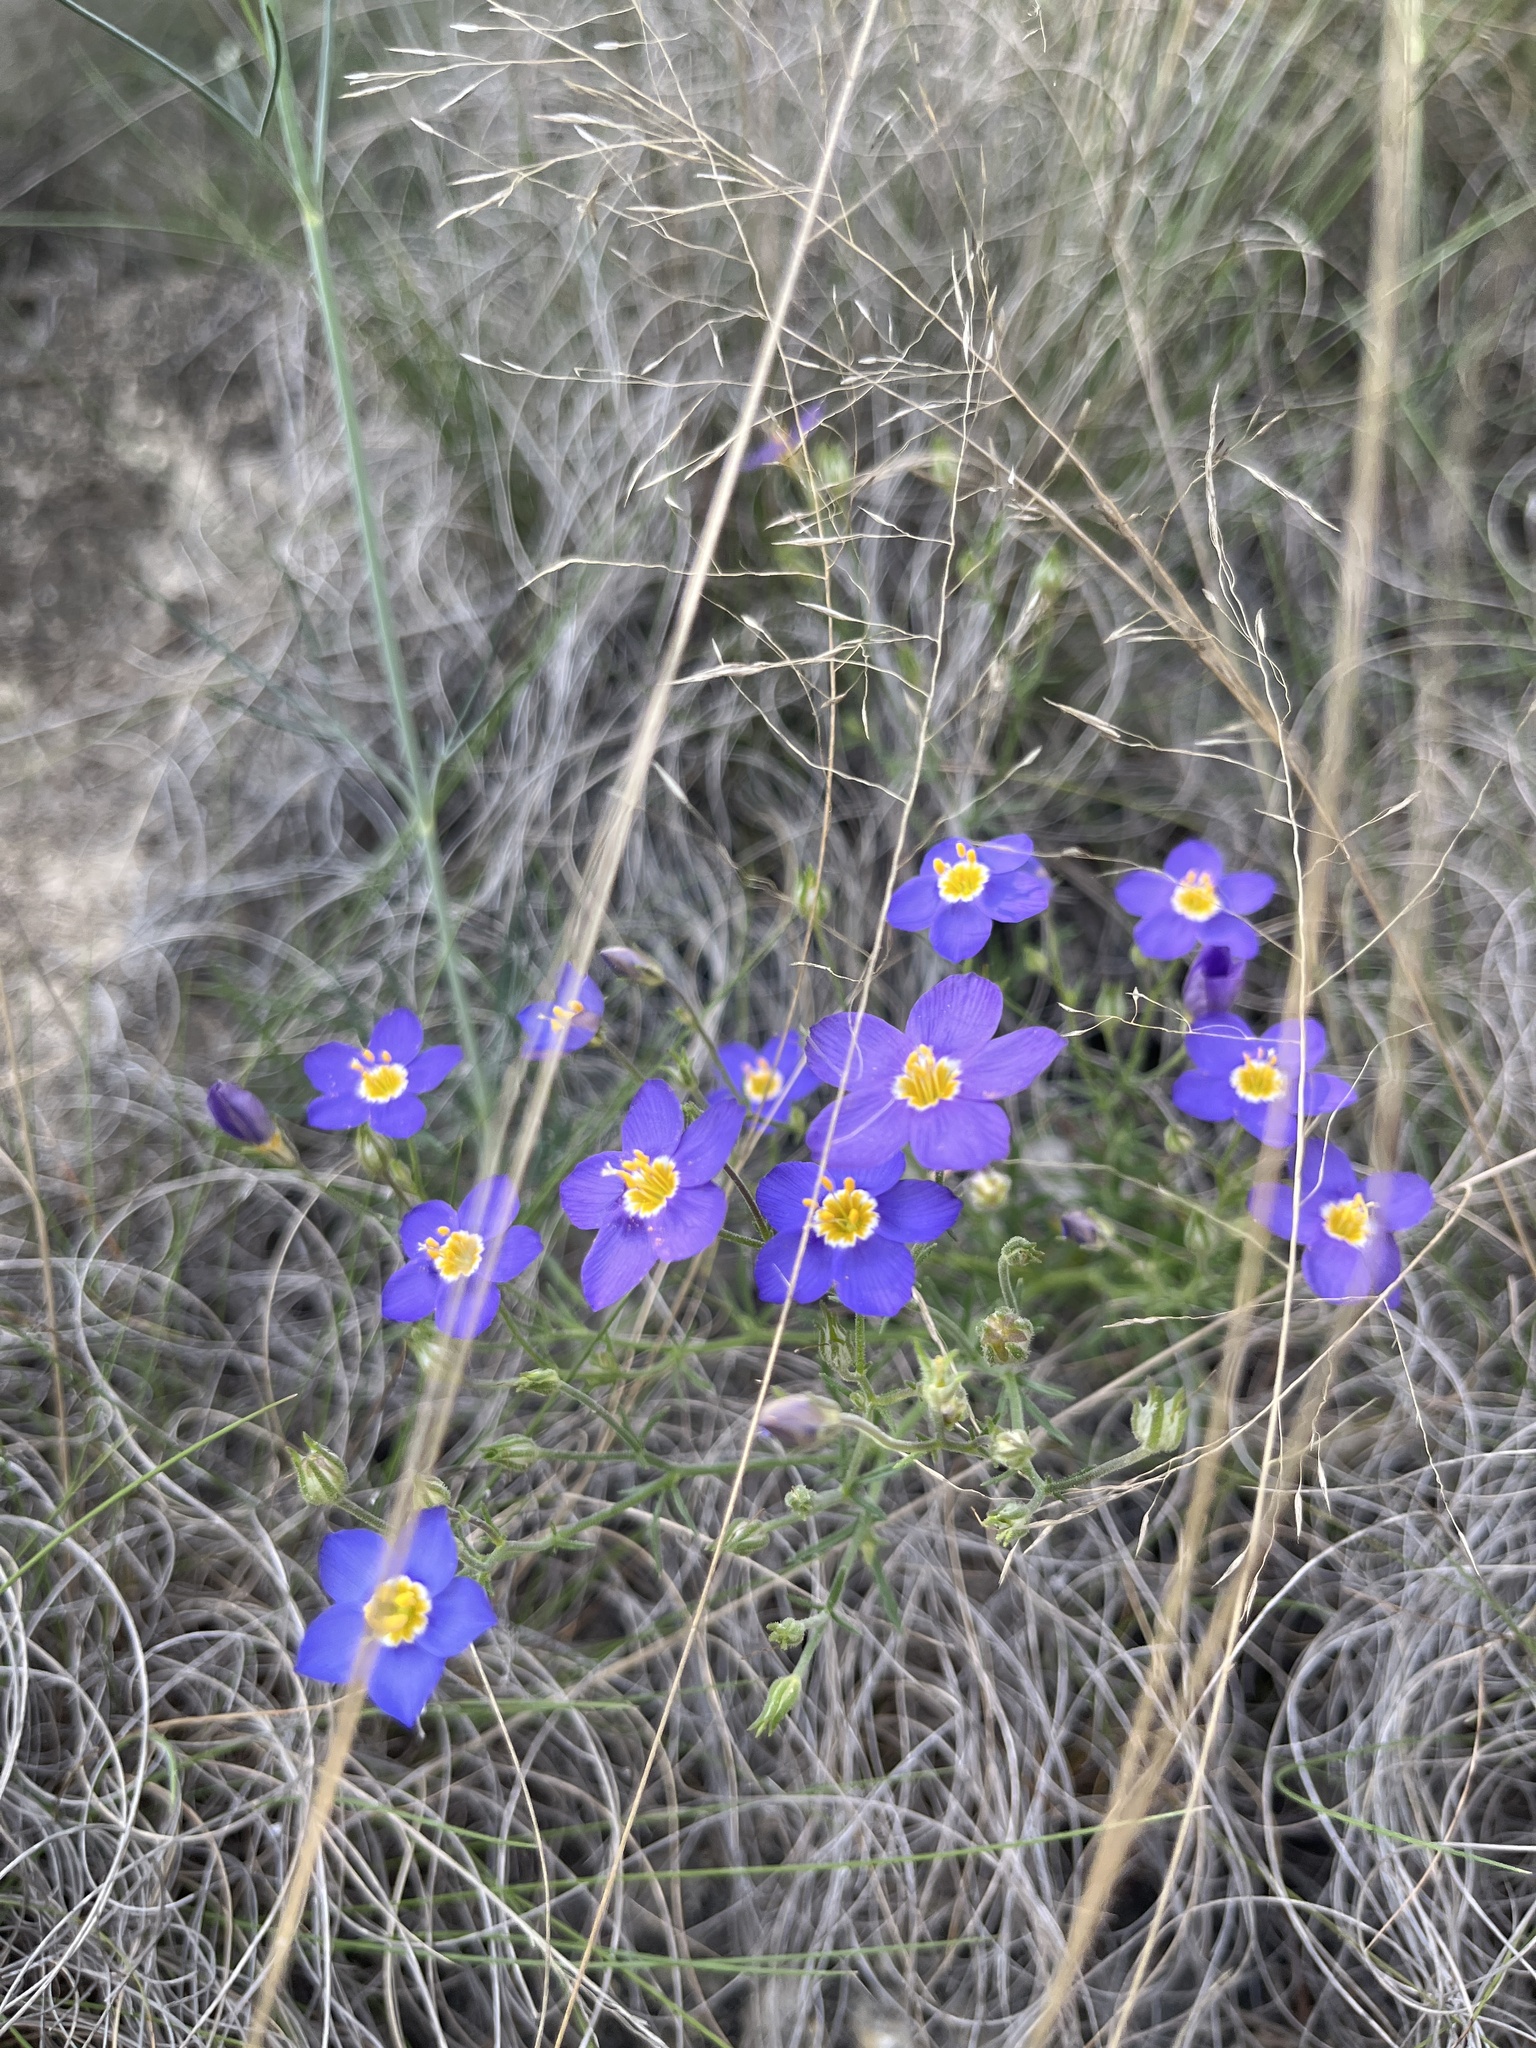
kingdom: Plantae
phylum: Tracheophyta
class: Magnoliopsida
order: Ericales
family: Polemoniaceae
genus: Giliastrum
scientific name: Giliastrum rigidulum
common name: Bluebowls
